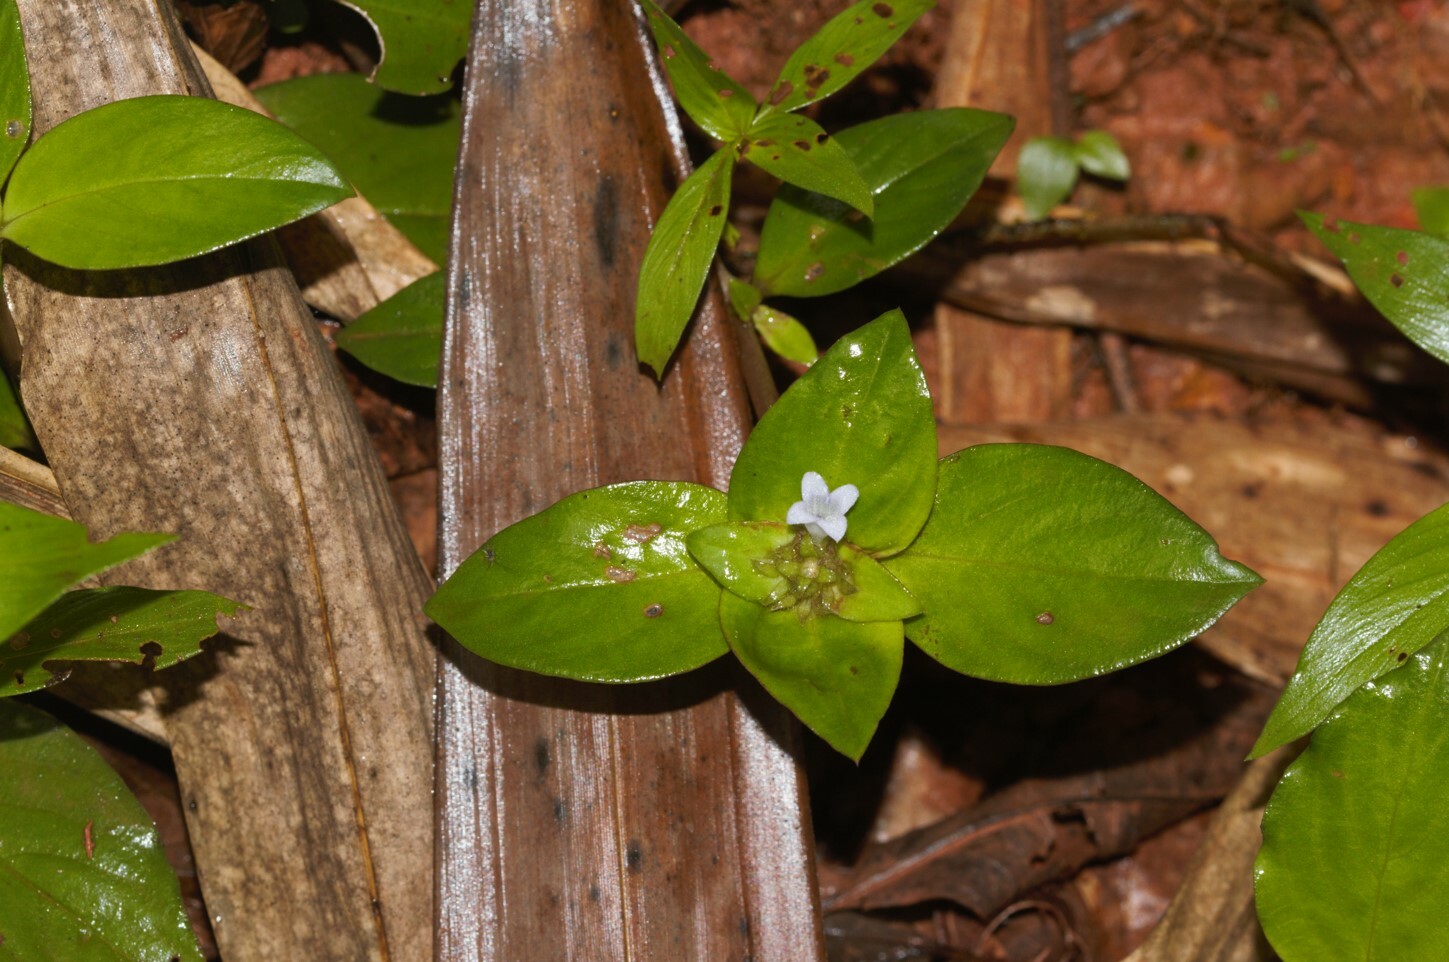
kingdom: Plantae
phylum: Tracheophyta
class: Magnoliopsida
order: Gentianales
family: Rubiaceae
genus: Spermacoce
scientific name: Spermacoce alata
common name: Winged false buttonweed
